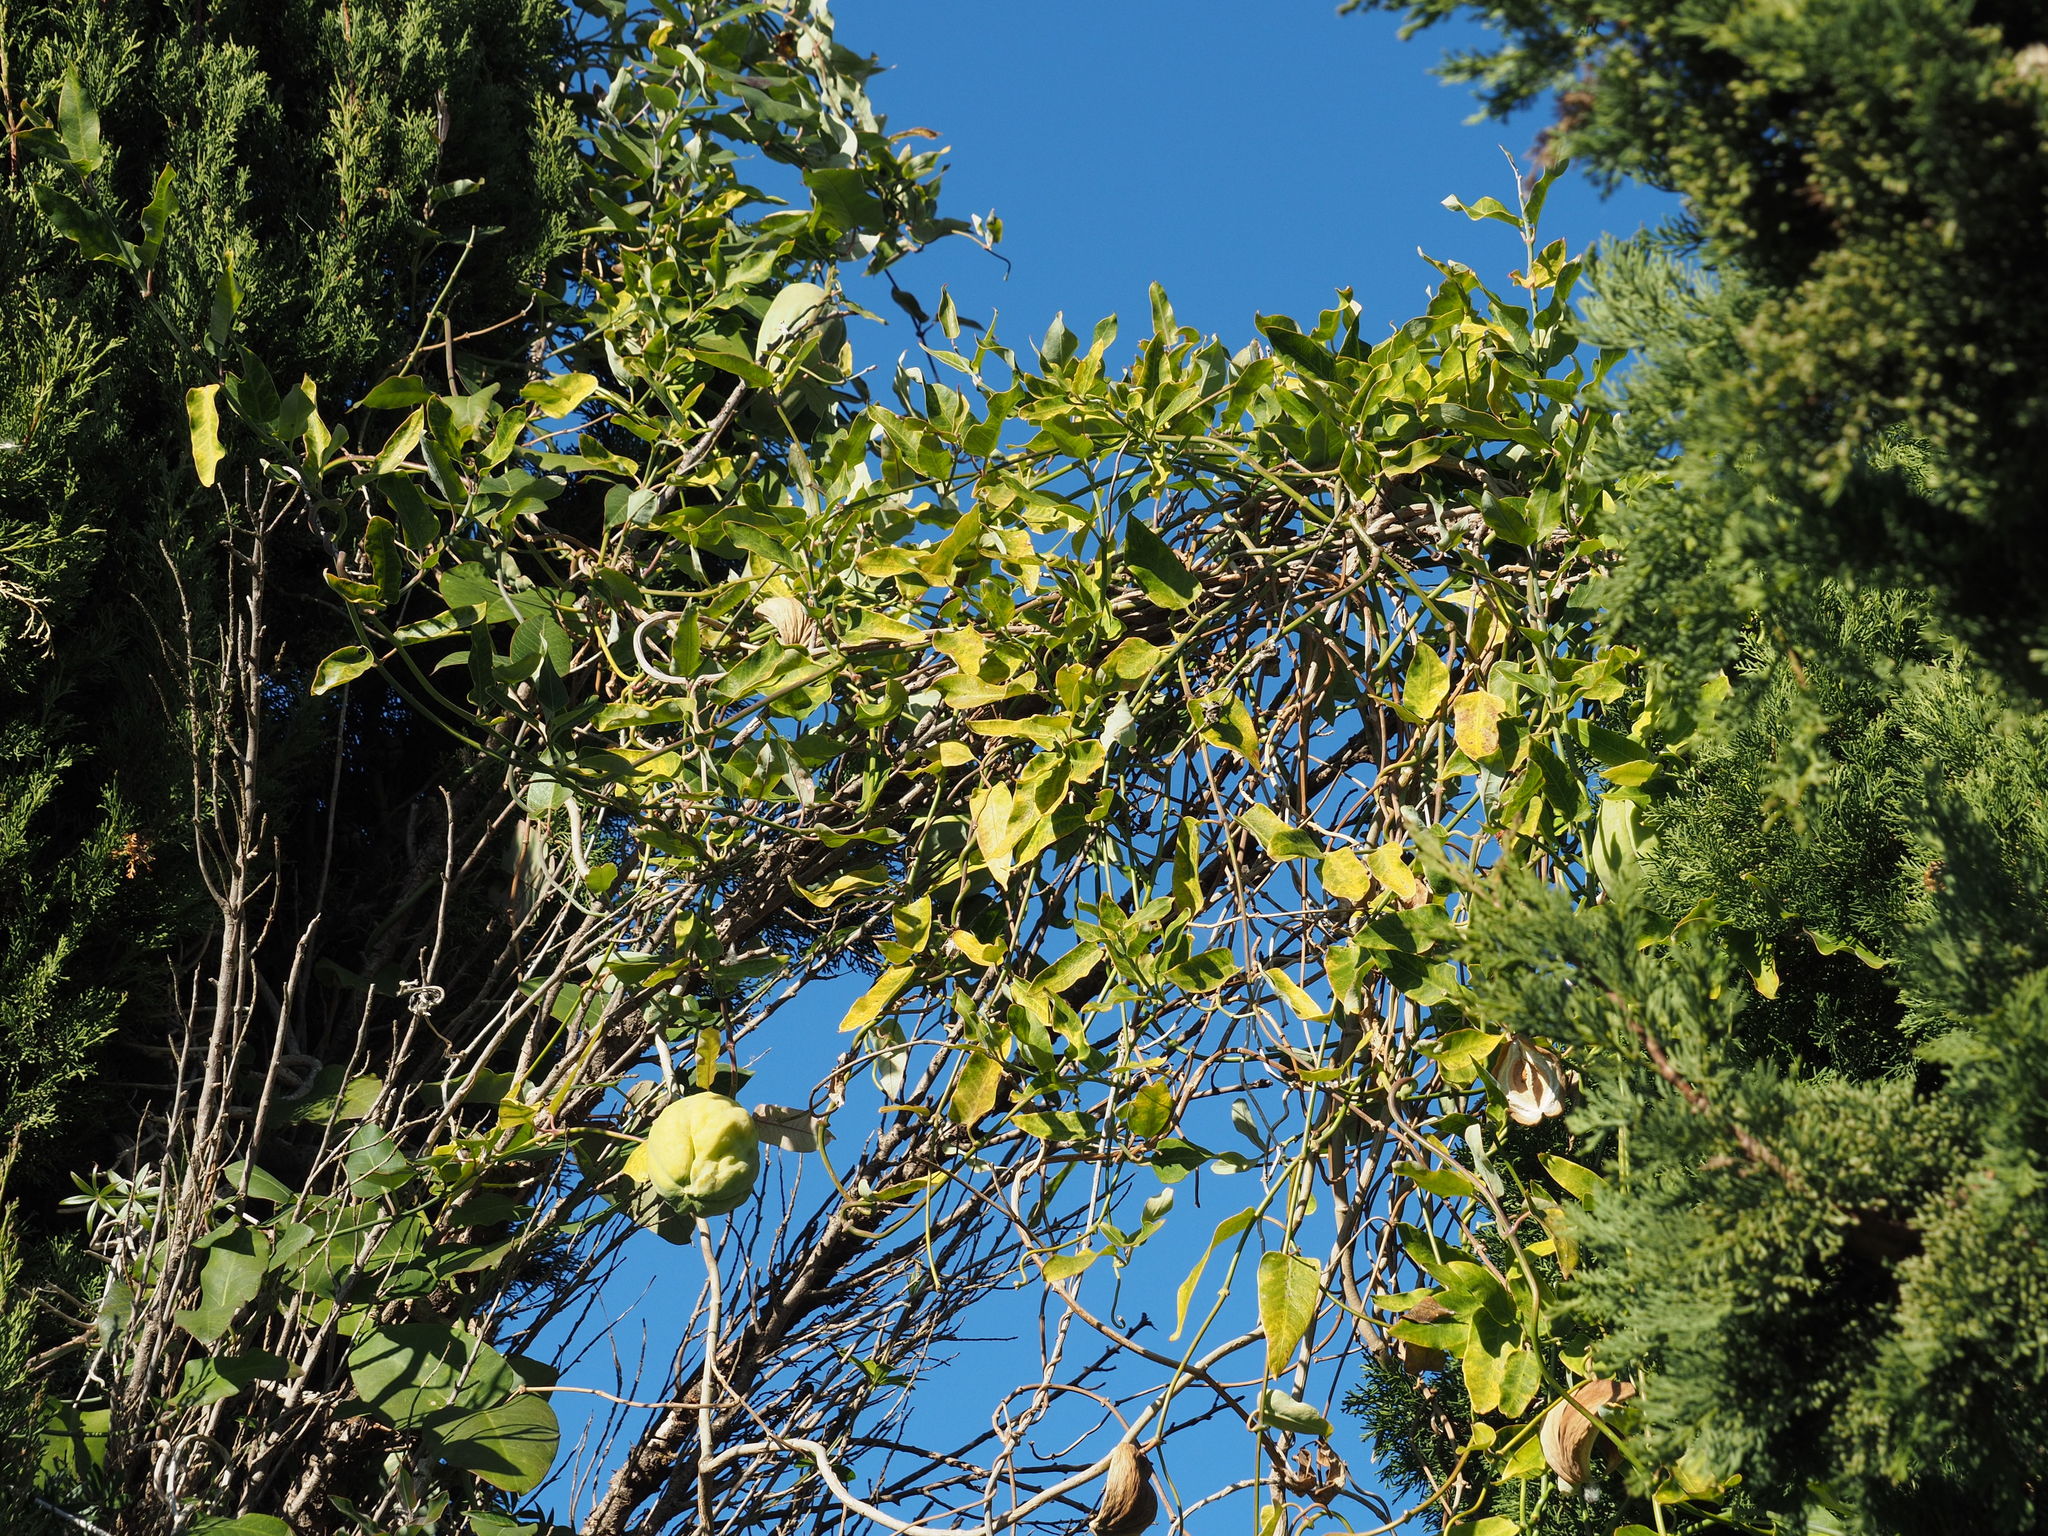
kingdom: Plantae
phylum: Tracheophyta
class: Magnoliopsida
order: Gentianales
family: Apocynaceae
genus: Araujia
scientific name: Araujia sericifera
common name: White bladderflower
